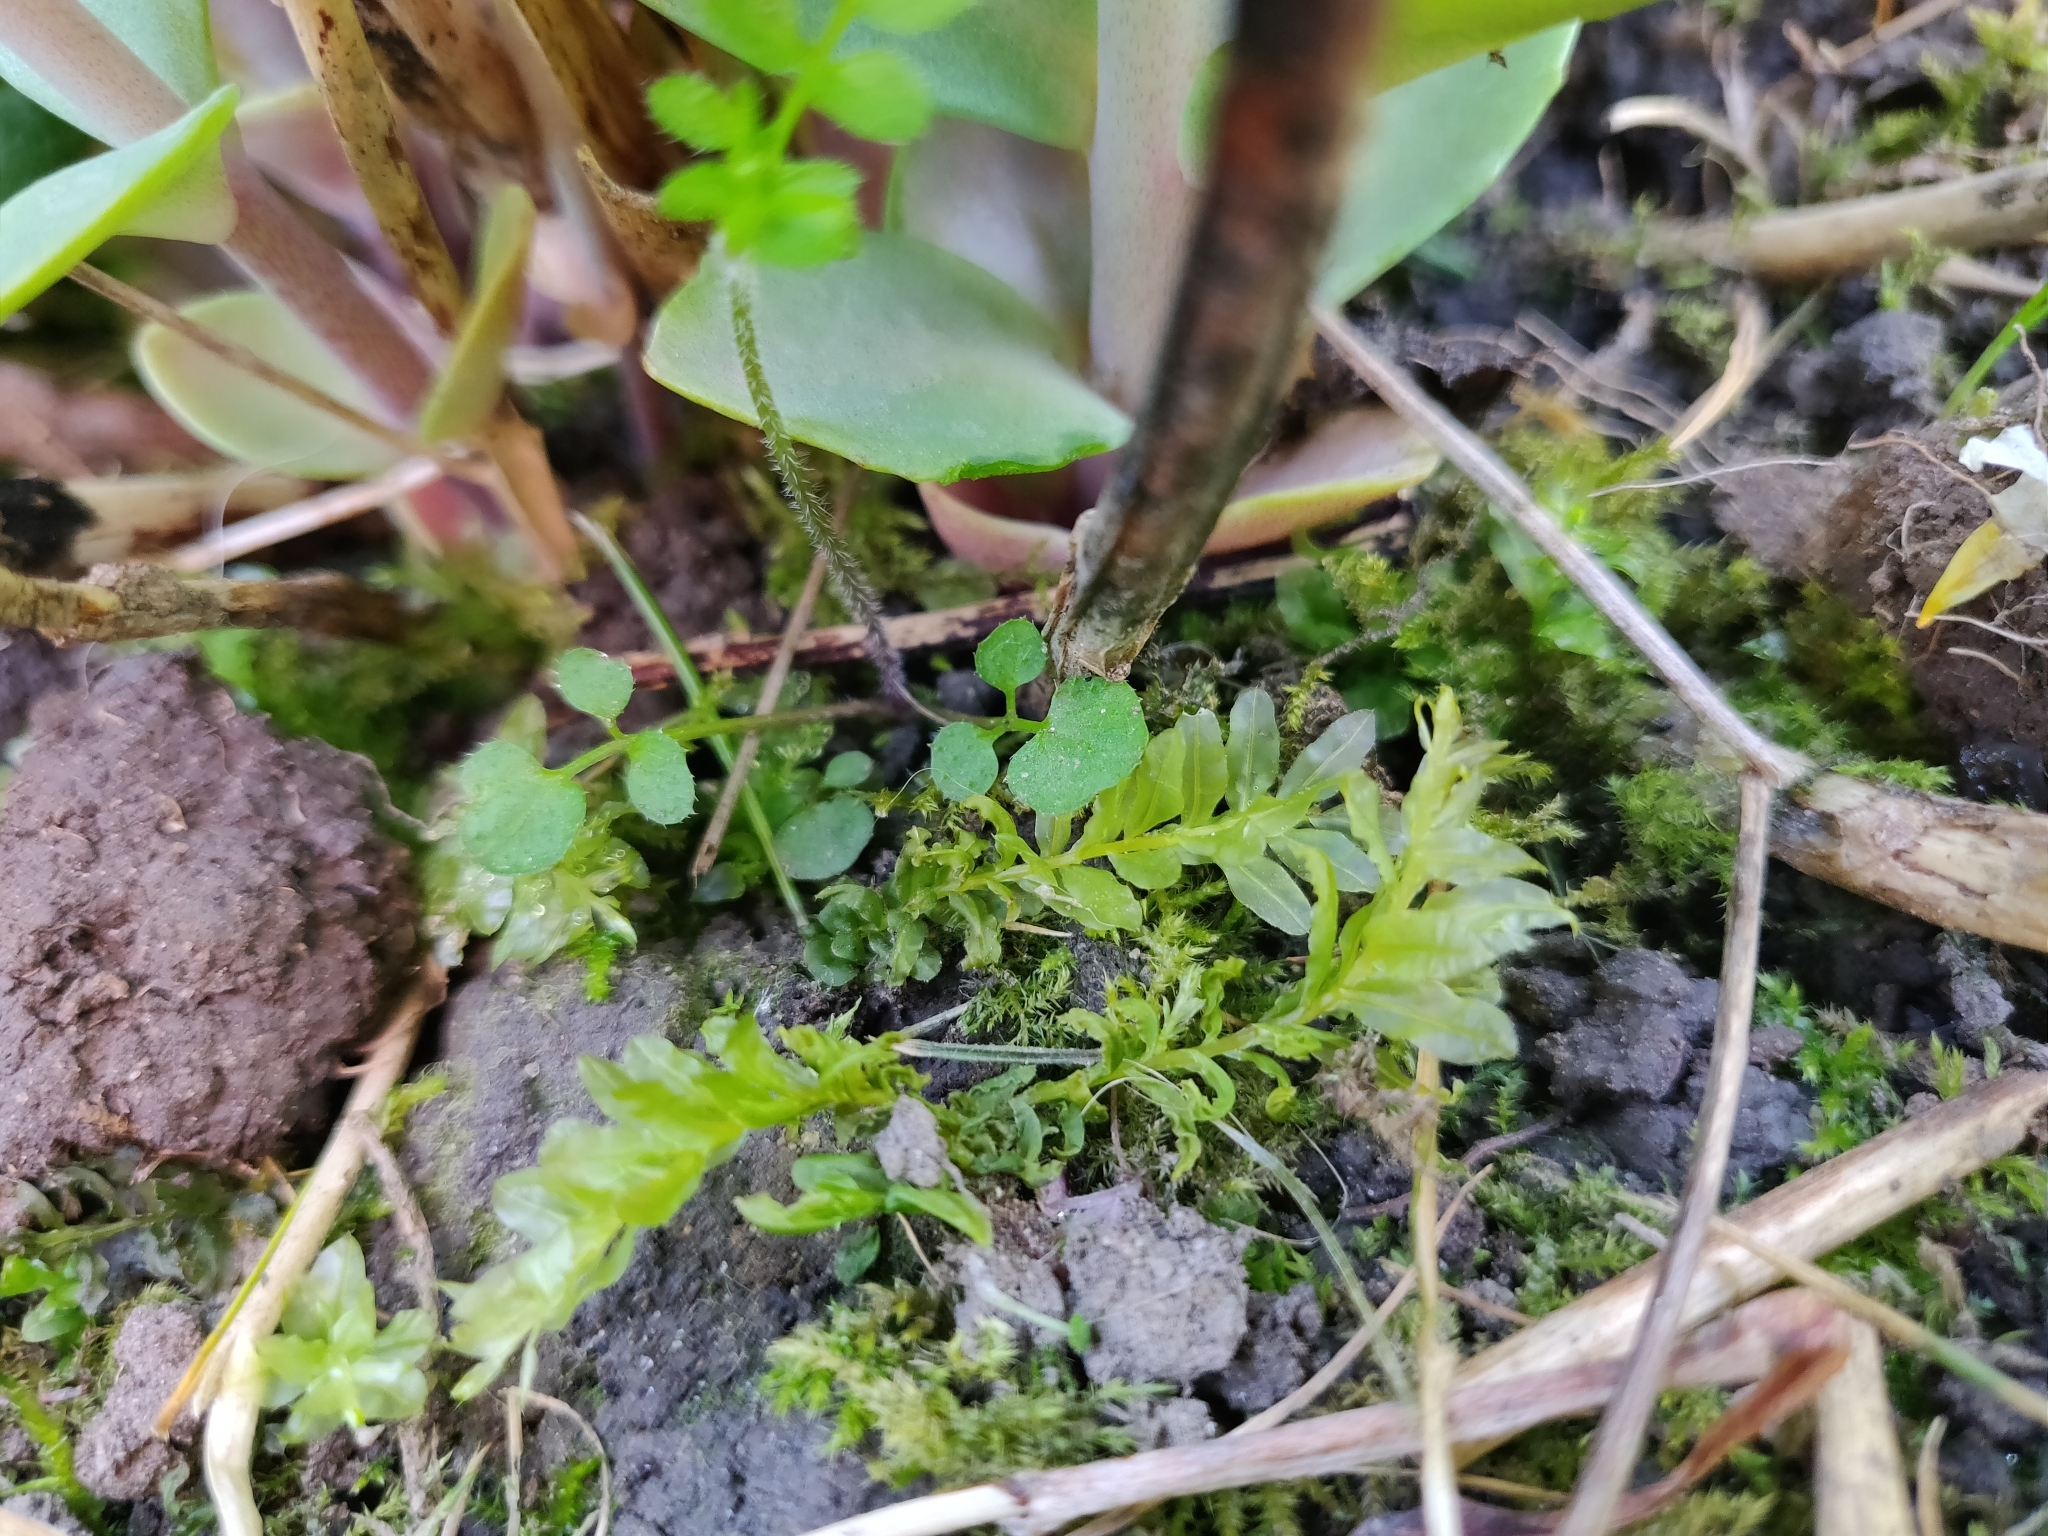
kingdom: Plantae
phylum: Bryophyta
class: Bryopsida
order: Bryales
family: Mniaceae
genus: Plagiomnium
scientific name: Plagiomnium undulatum
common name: Hart's-tongue thyme-moss
